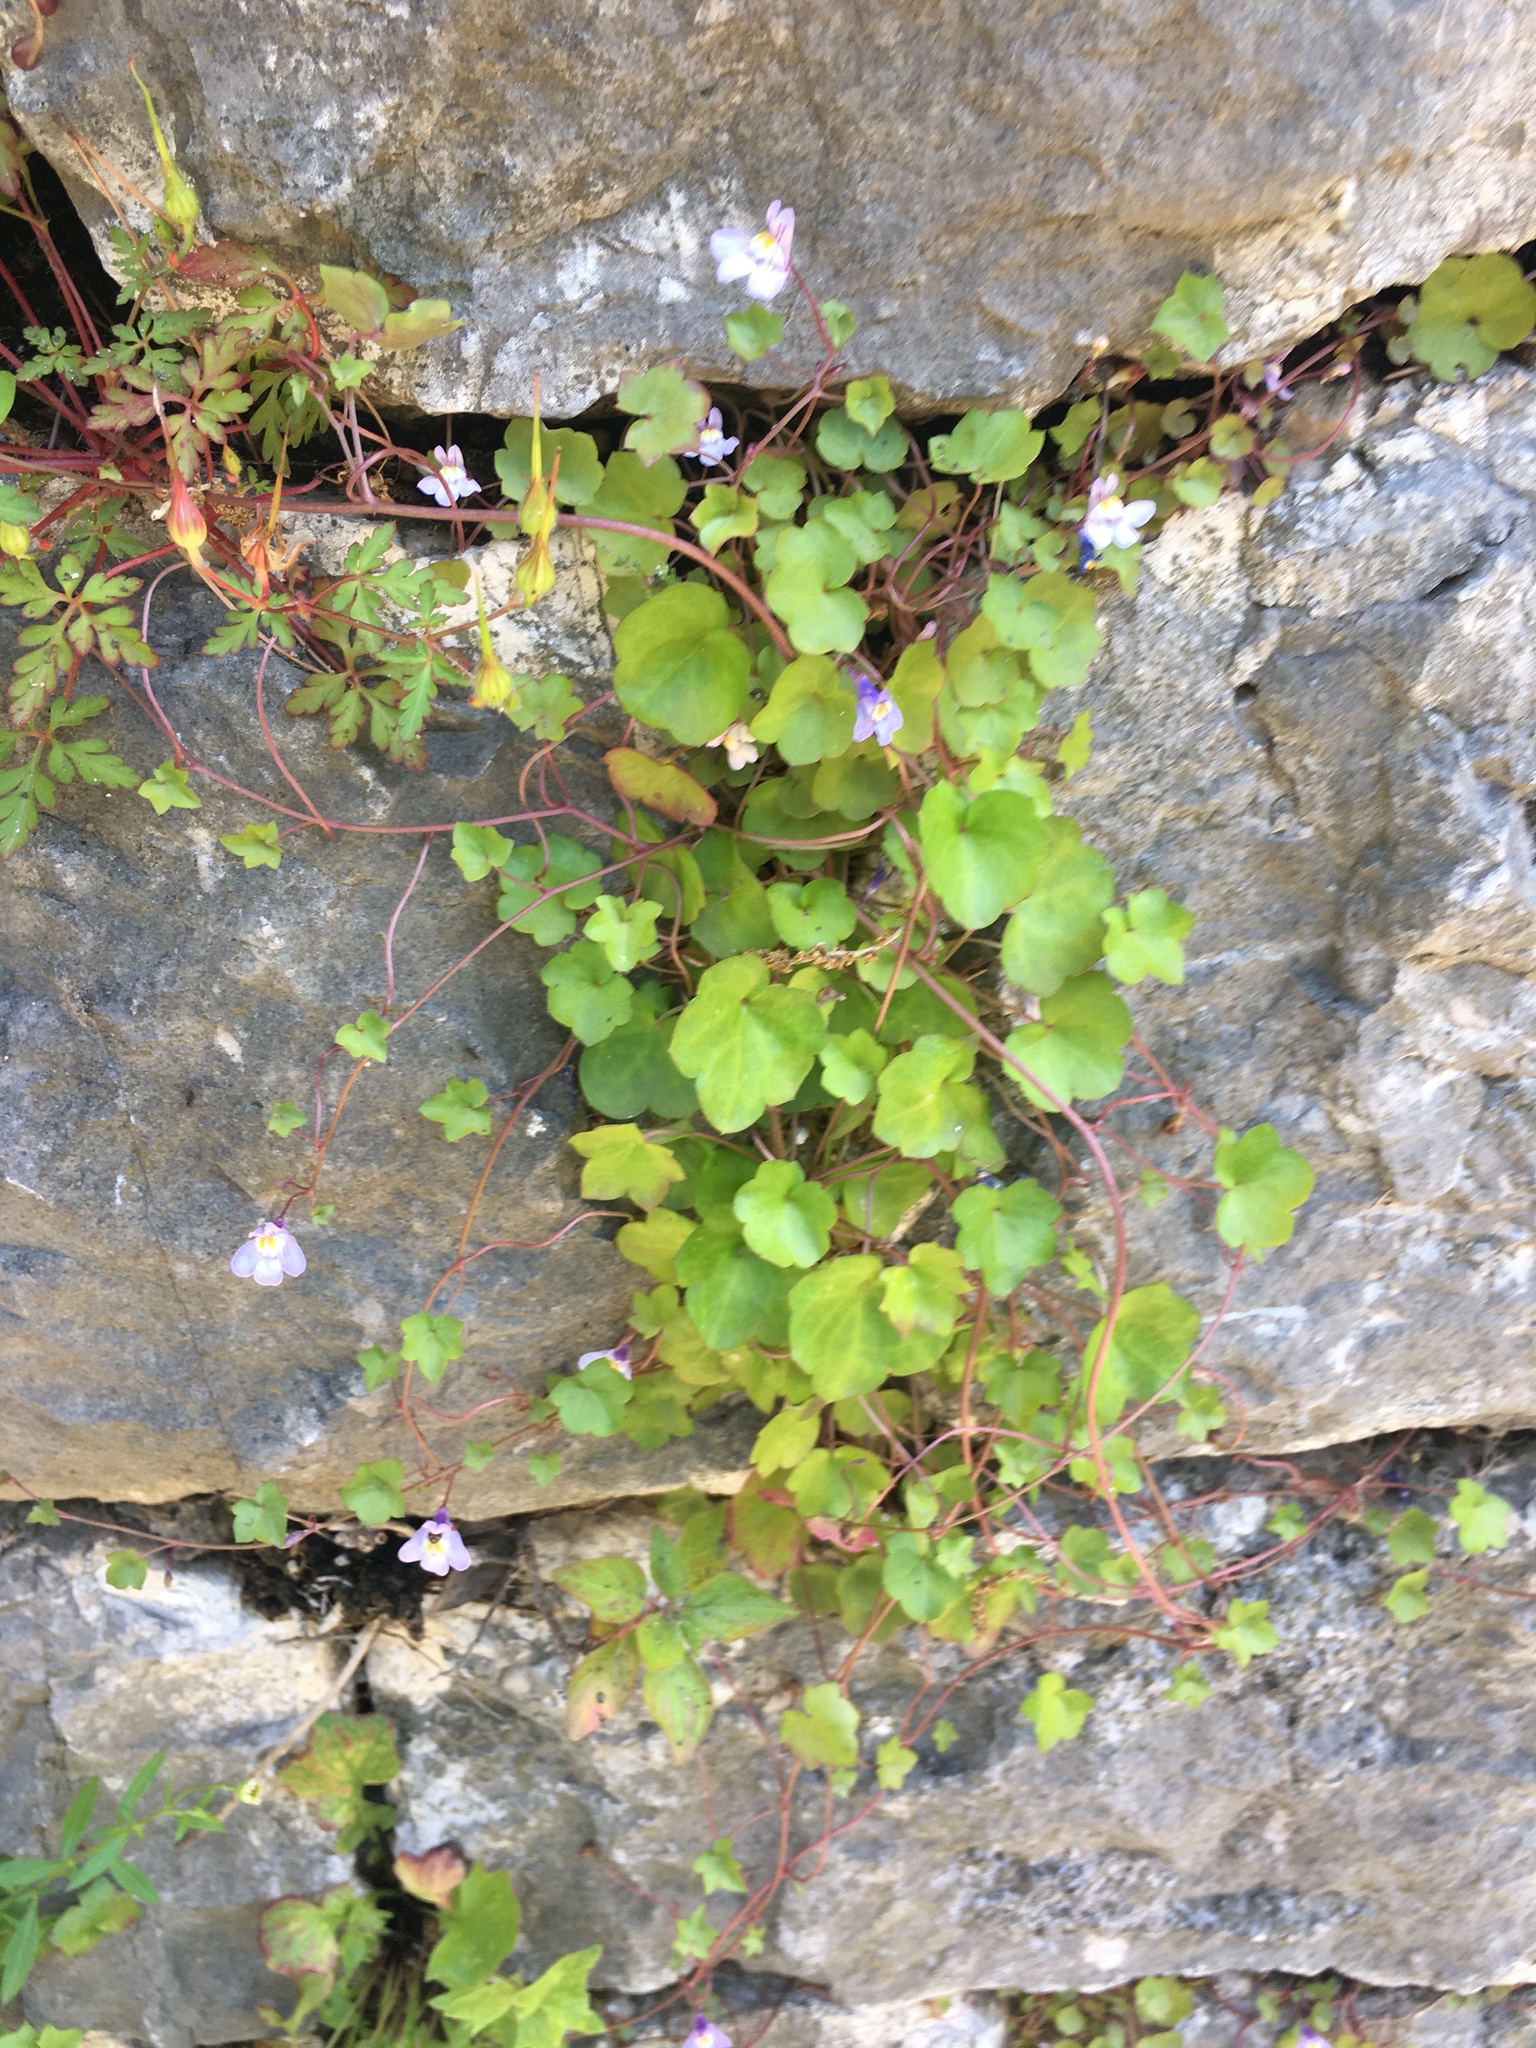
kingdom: Plantae
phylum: Tracheophyta
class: Magnoliopsida
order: Lamiales
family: Plantaginaceae
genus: Cymbalaria
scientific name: Cymbalaria muralis
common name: Ivy-leaved toadflax
